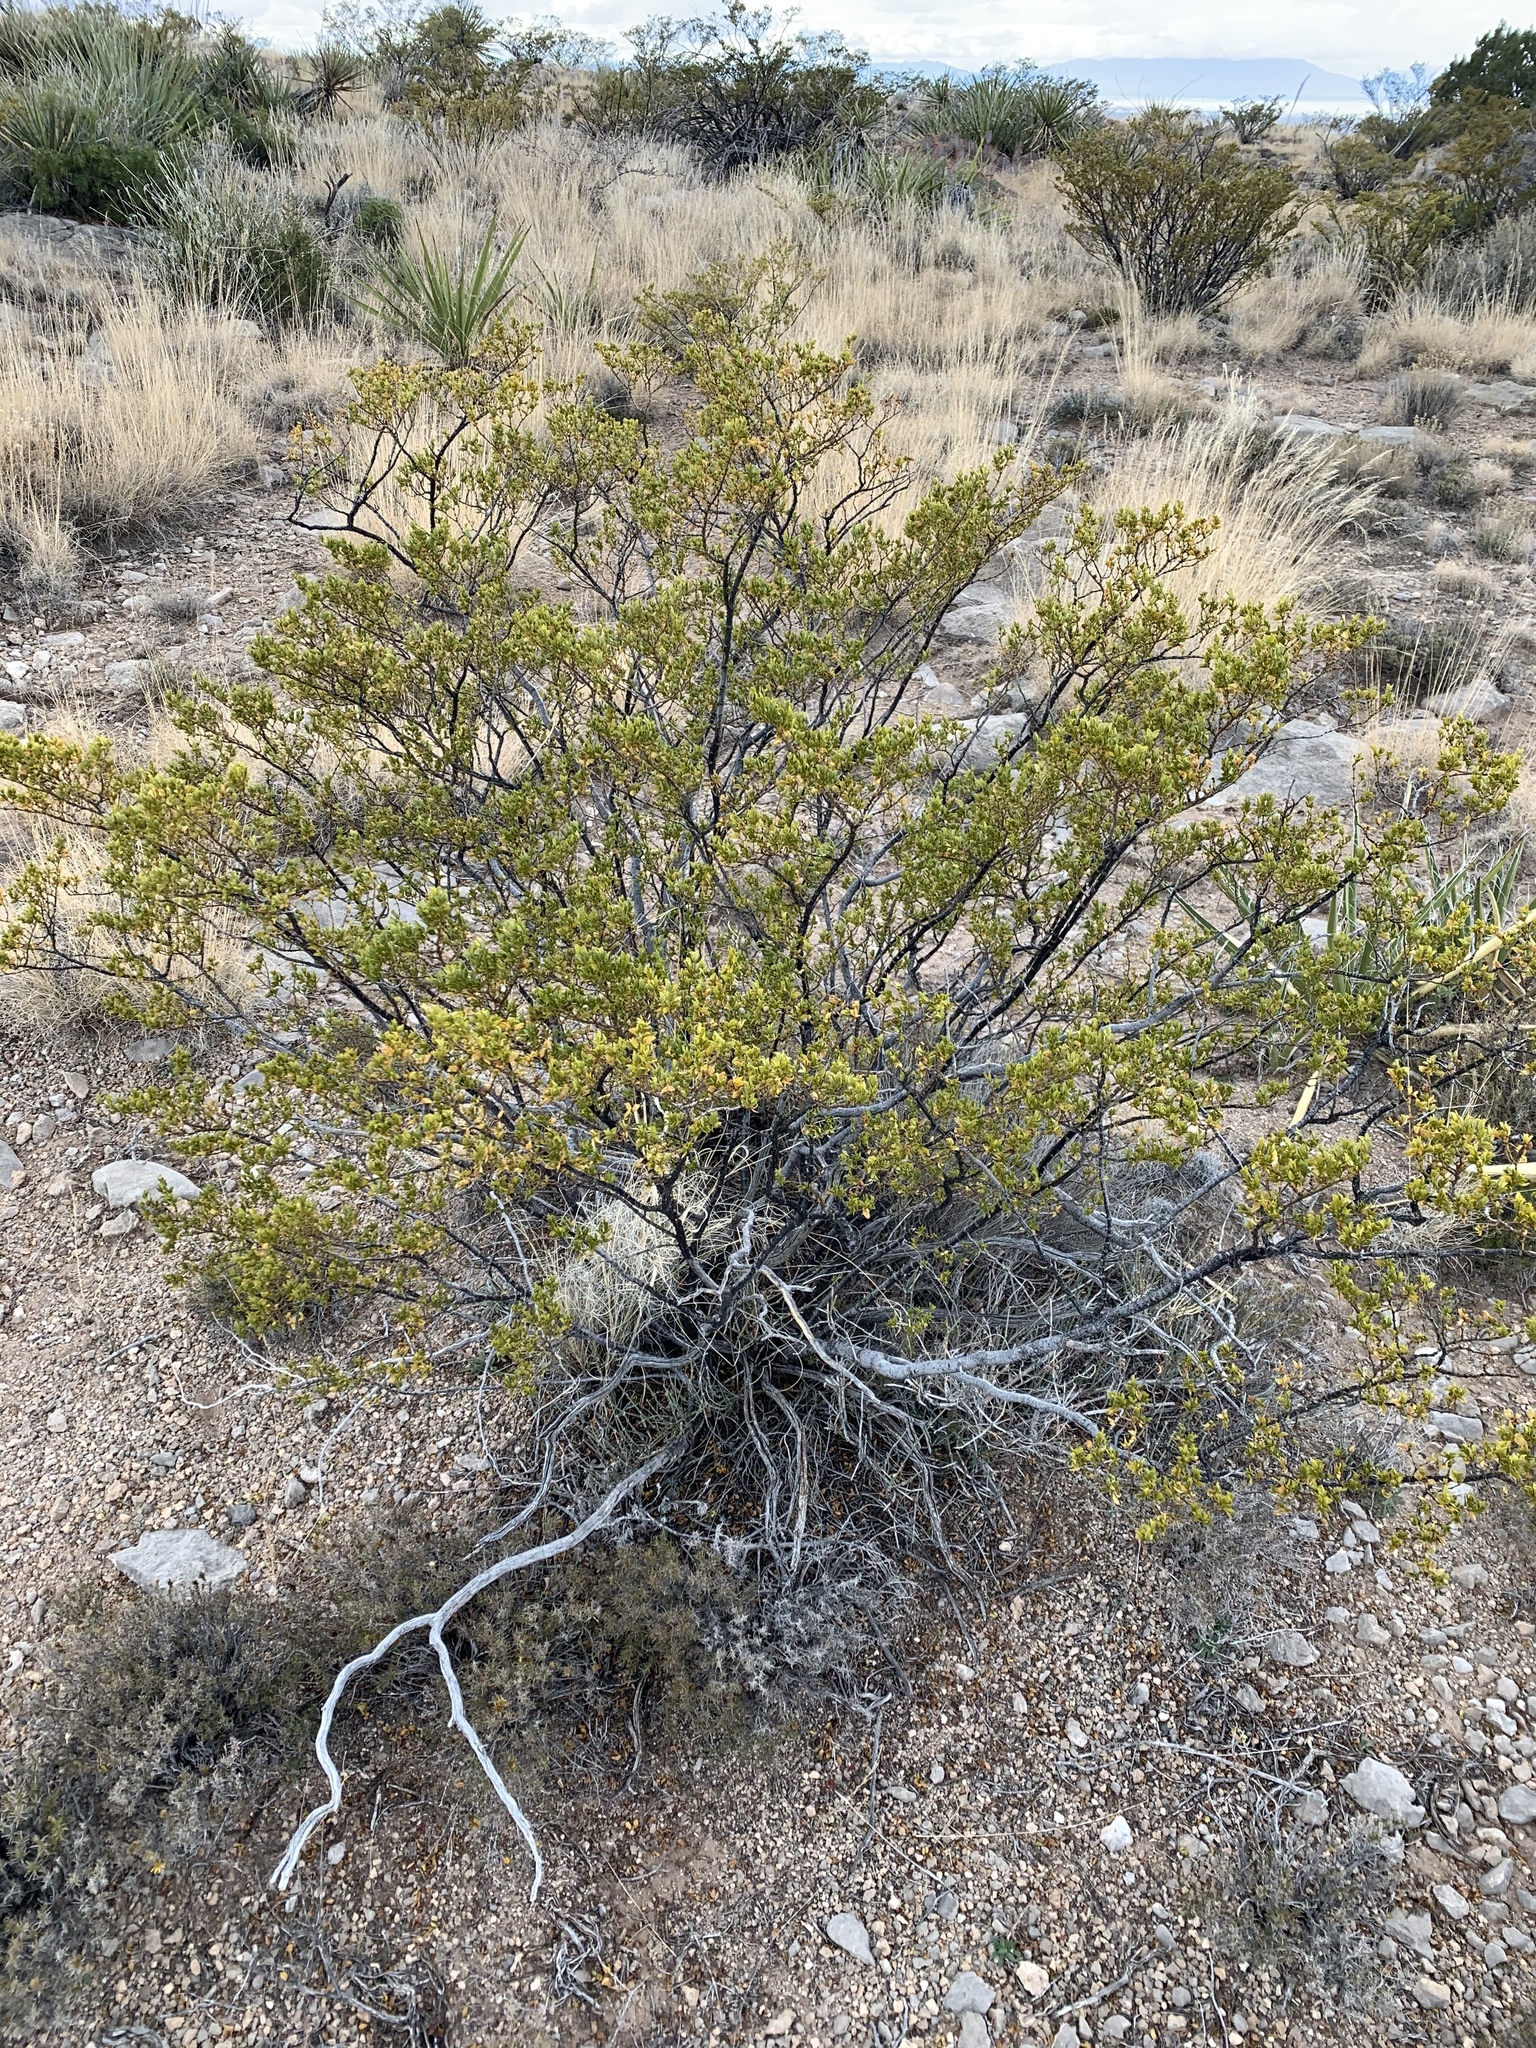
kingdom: Plantae
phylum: Tracheophyta
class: Magnoliopsida
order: Zygophyllales
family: Zygophyllaceae
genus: Larrea
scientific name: Larrea tridentata
